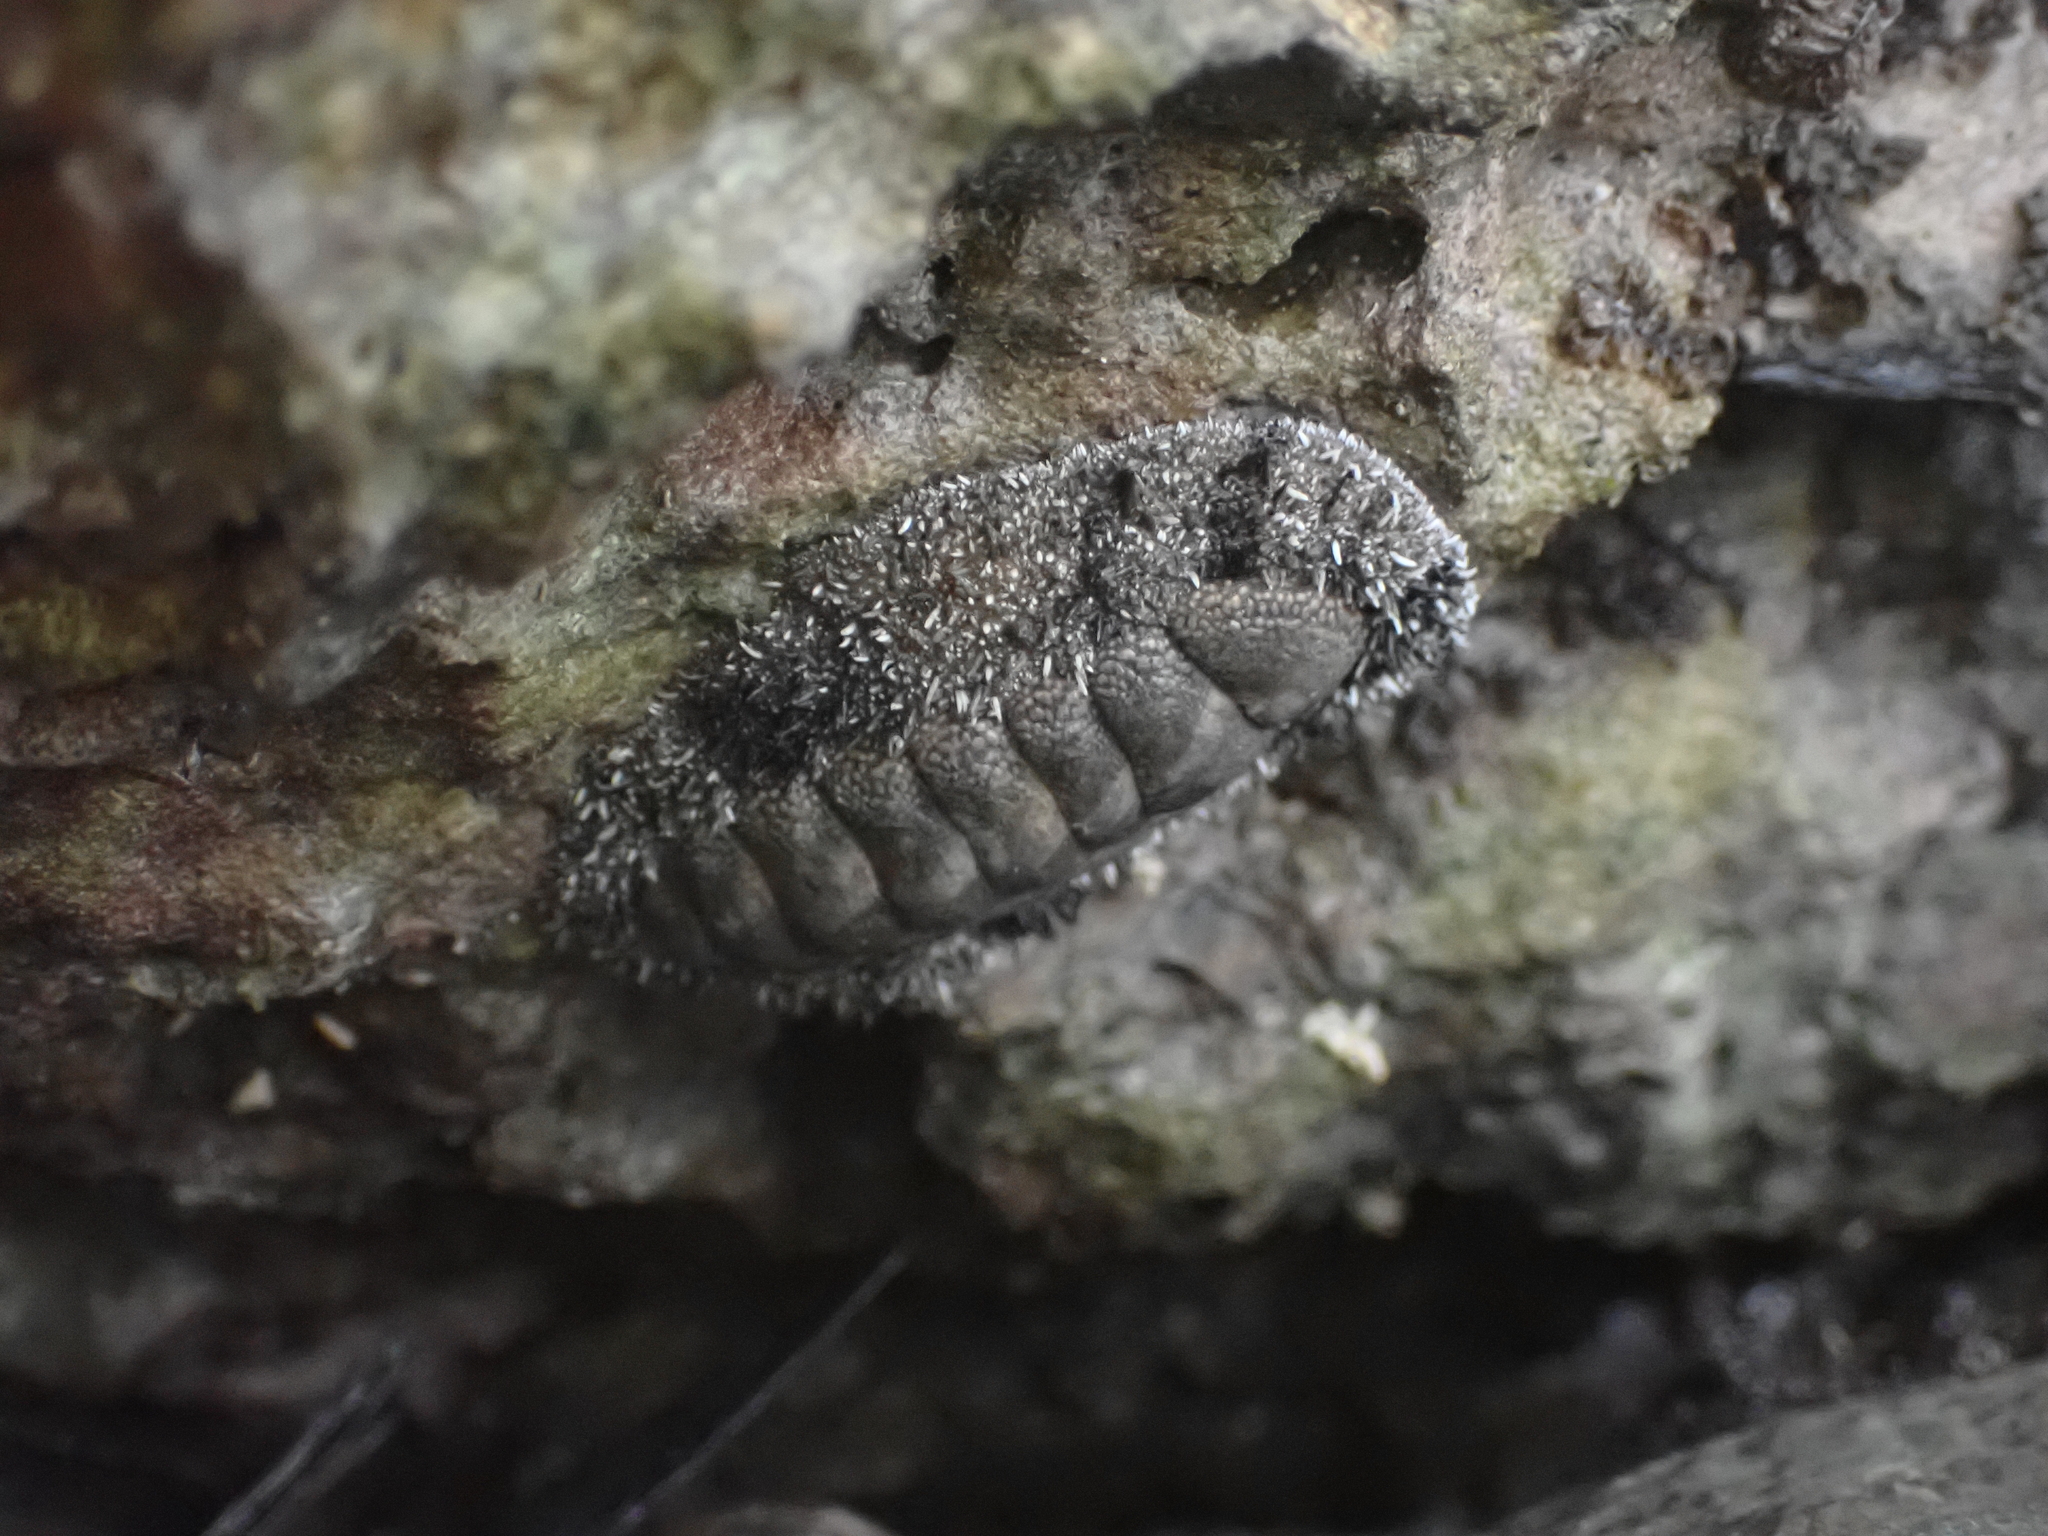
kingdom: Animalia
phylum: Mollusca
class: Polyplacophora
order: Chitonida
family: Chitonidae
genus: Acanthopleura
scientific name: Acanthopleura granulata
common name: West indian fuzzy chiton
